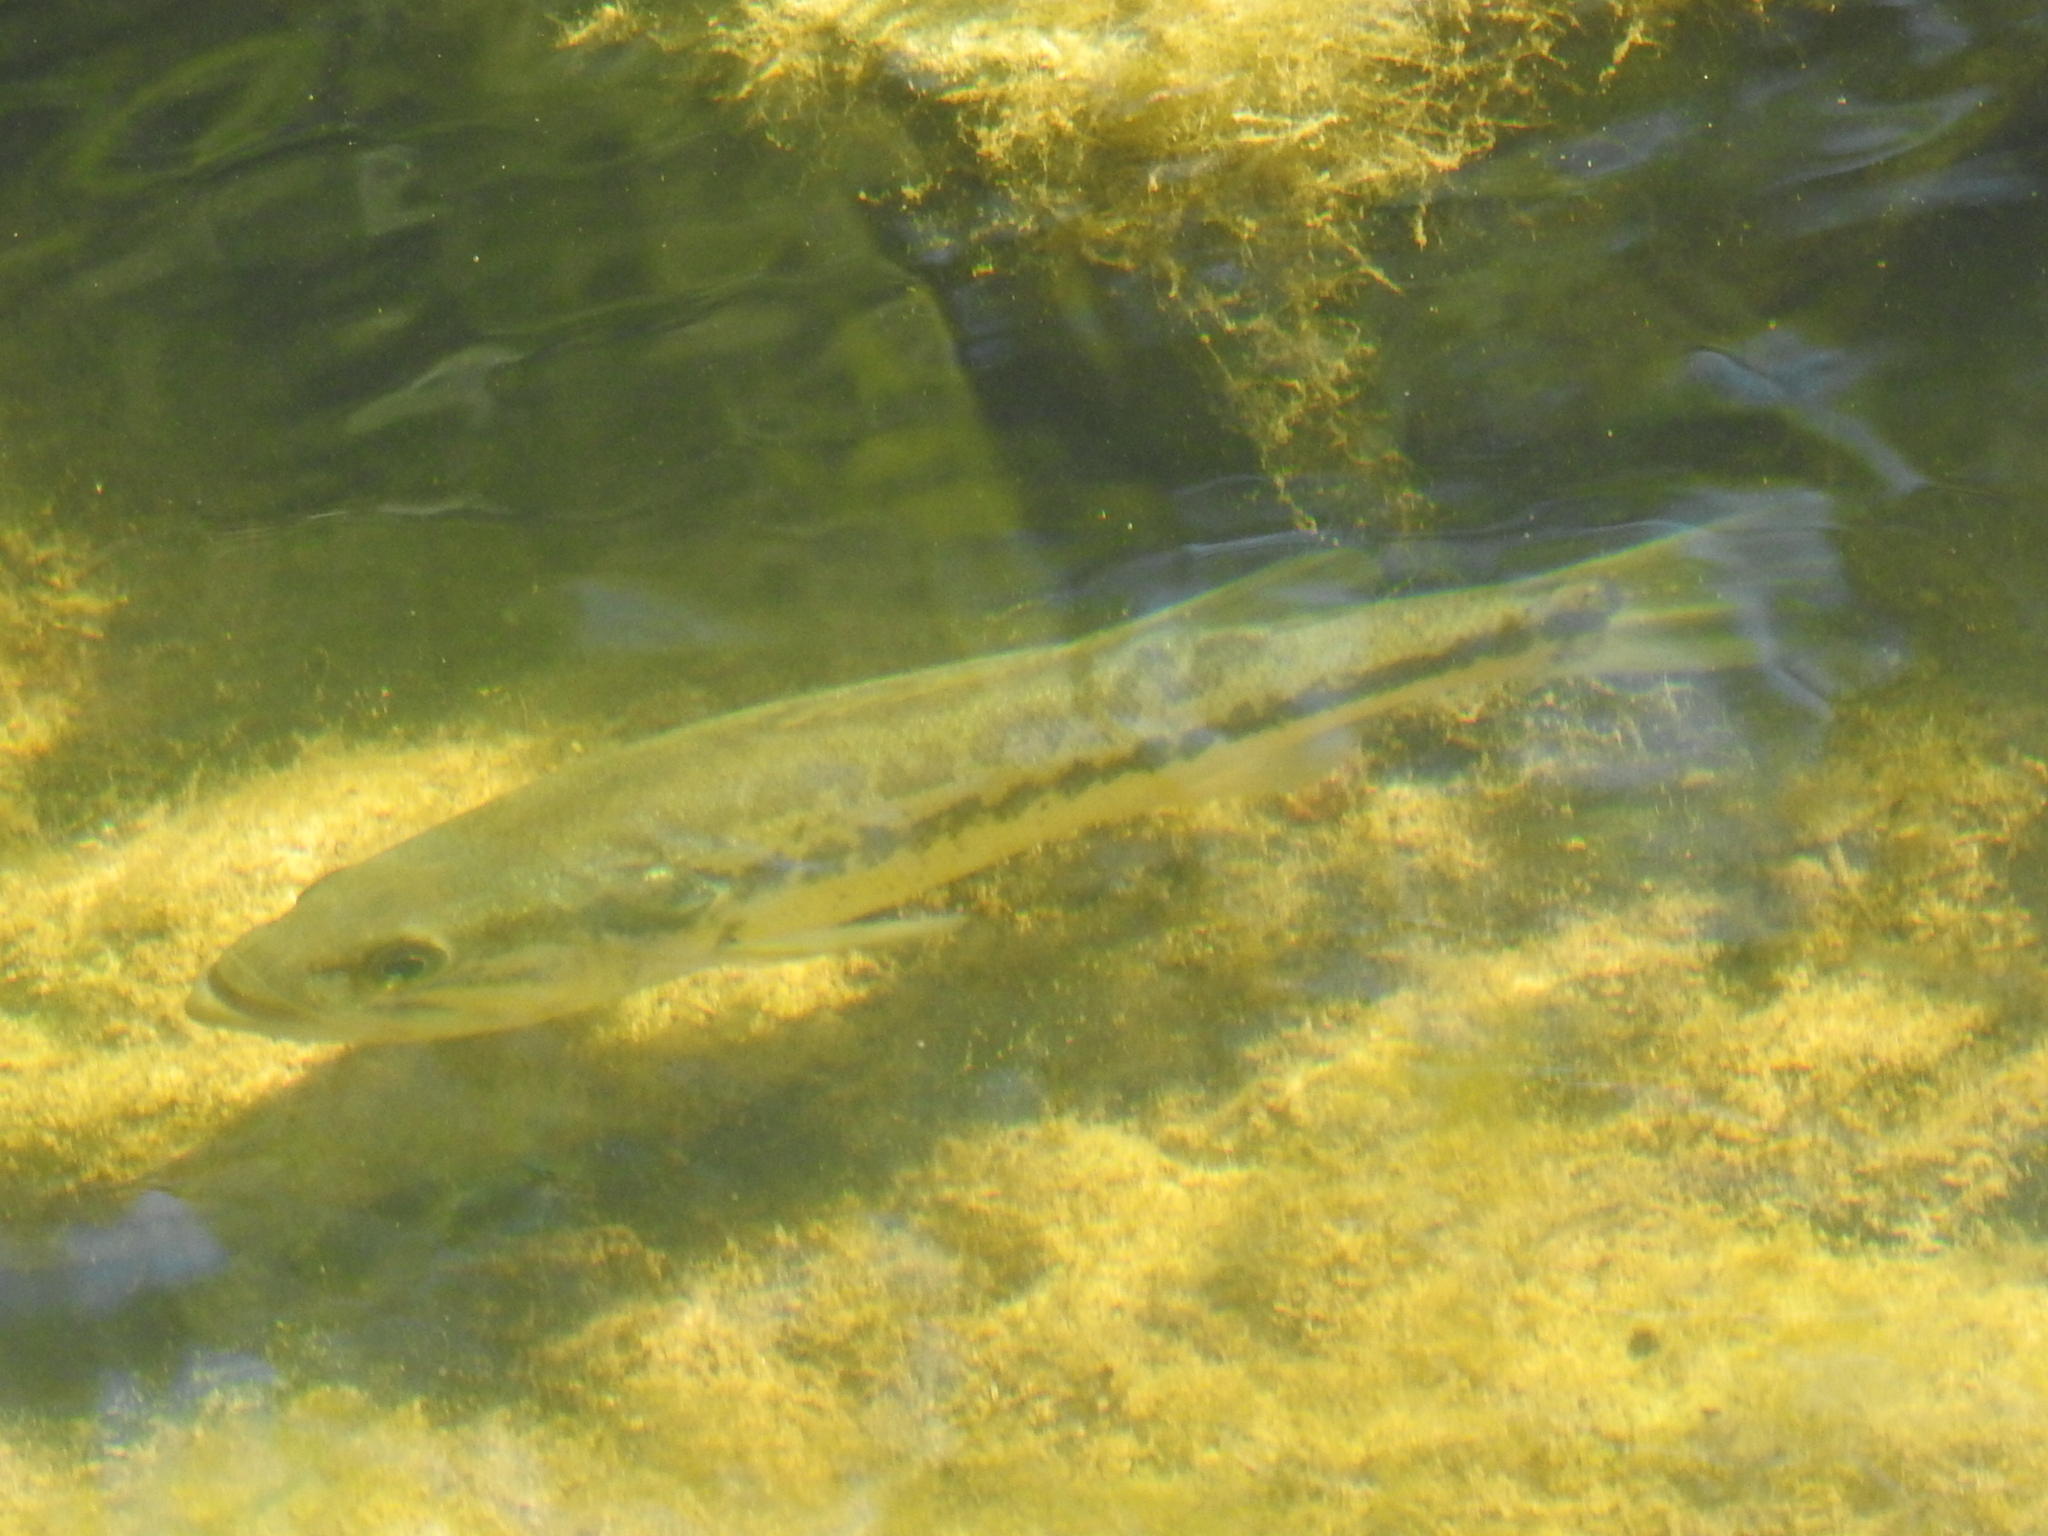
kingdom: Animalia
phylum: Chordata
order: Perciformes
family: Centrarchidae
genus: Micropterus
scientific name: Micropterus
